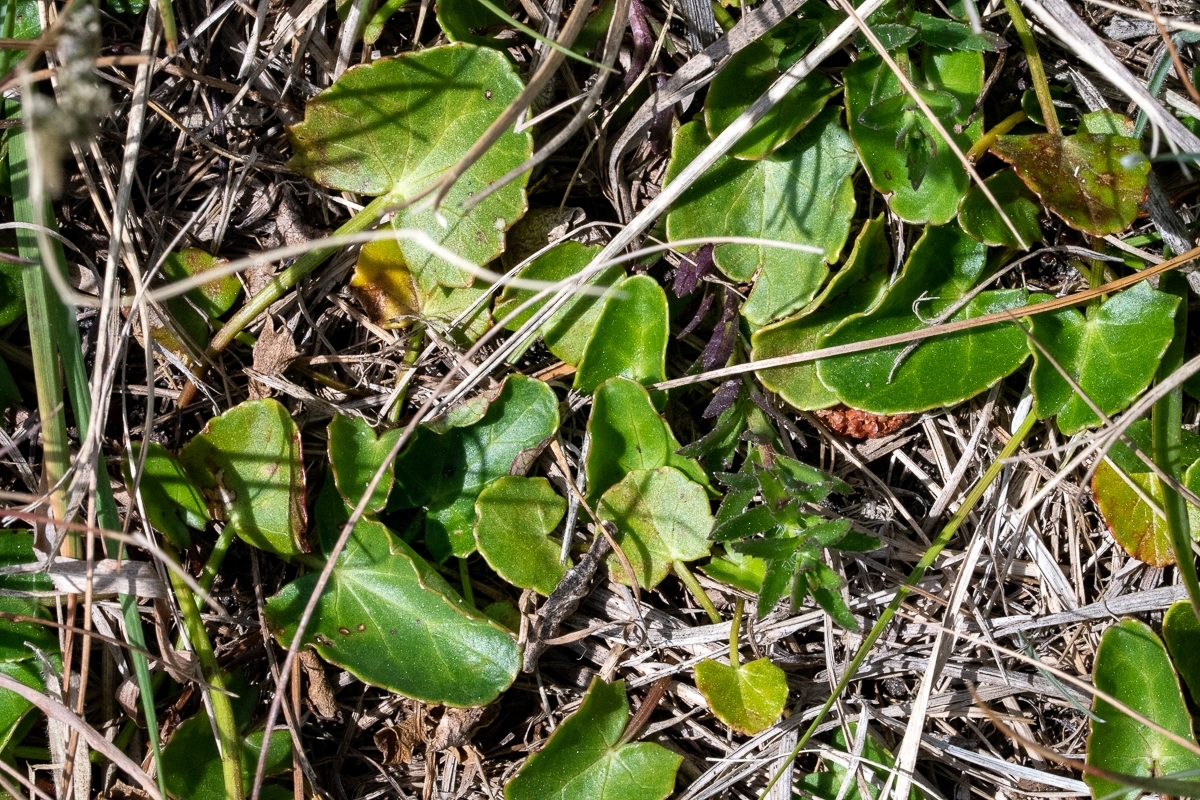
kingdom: Plantae
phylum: Tracheophyta
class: Magnoliopsida
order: Apiales
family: Apiaceae
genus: Centella
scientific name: Centella asiatica
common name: Spadeleaf
